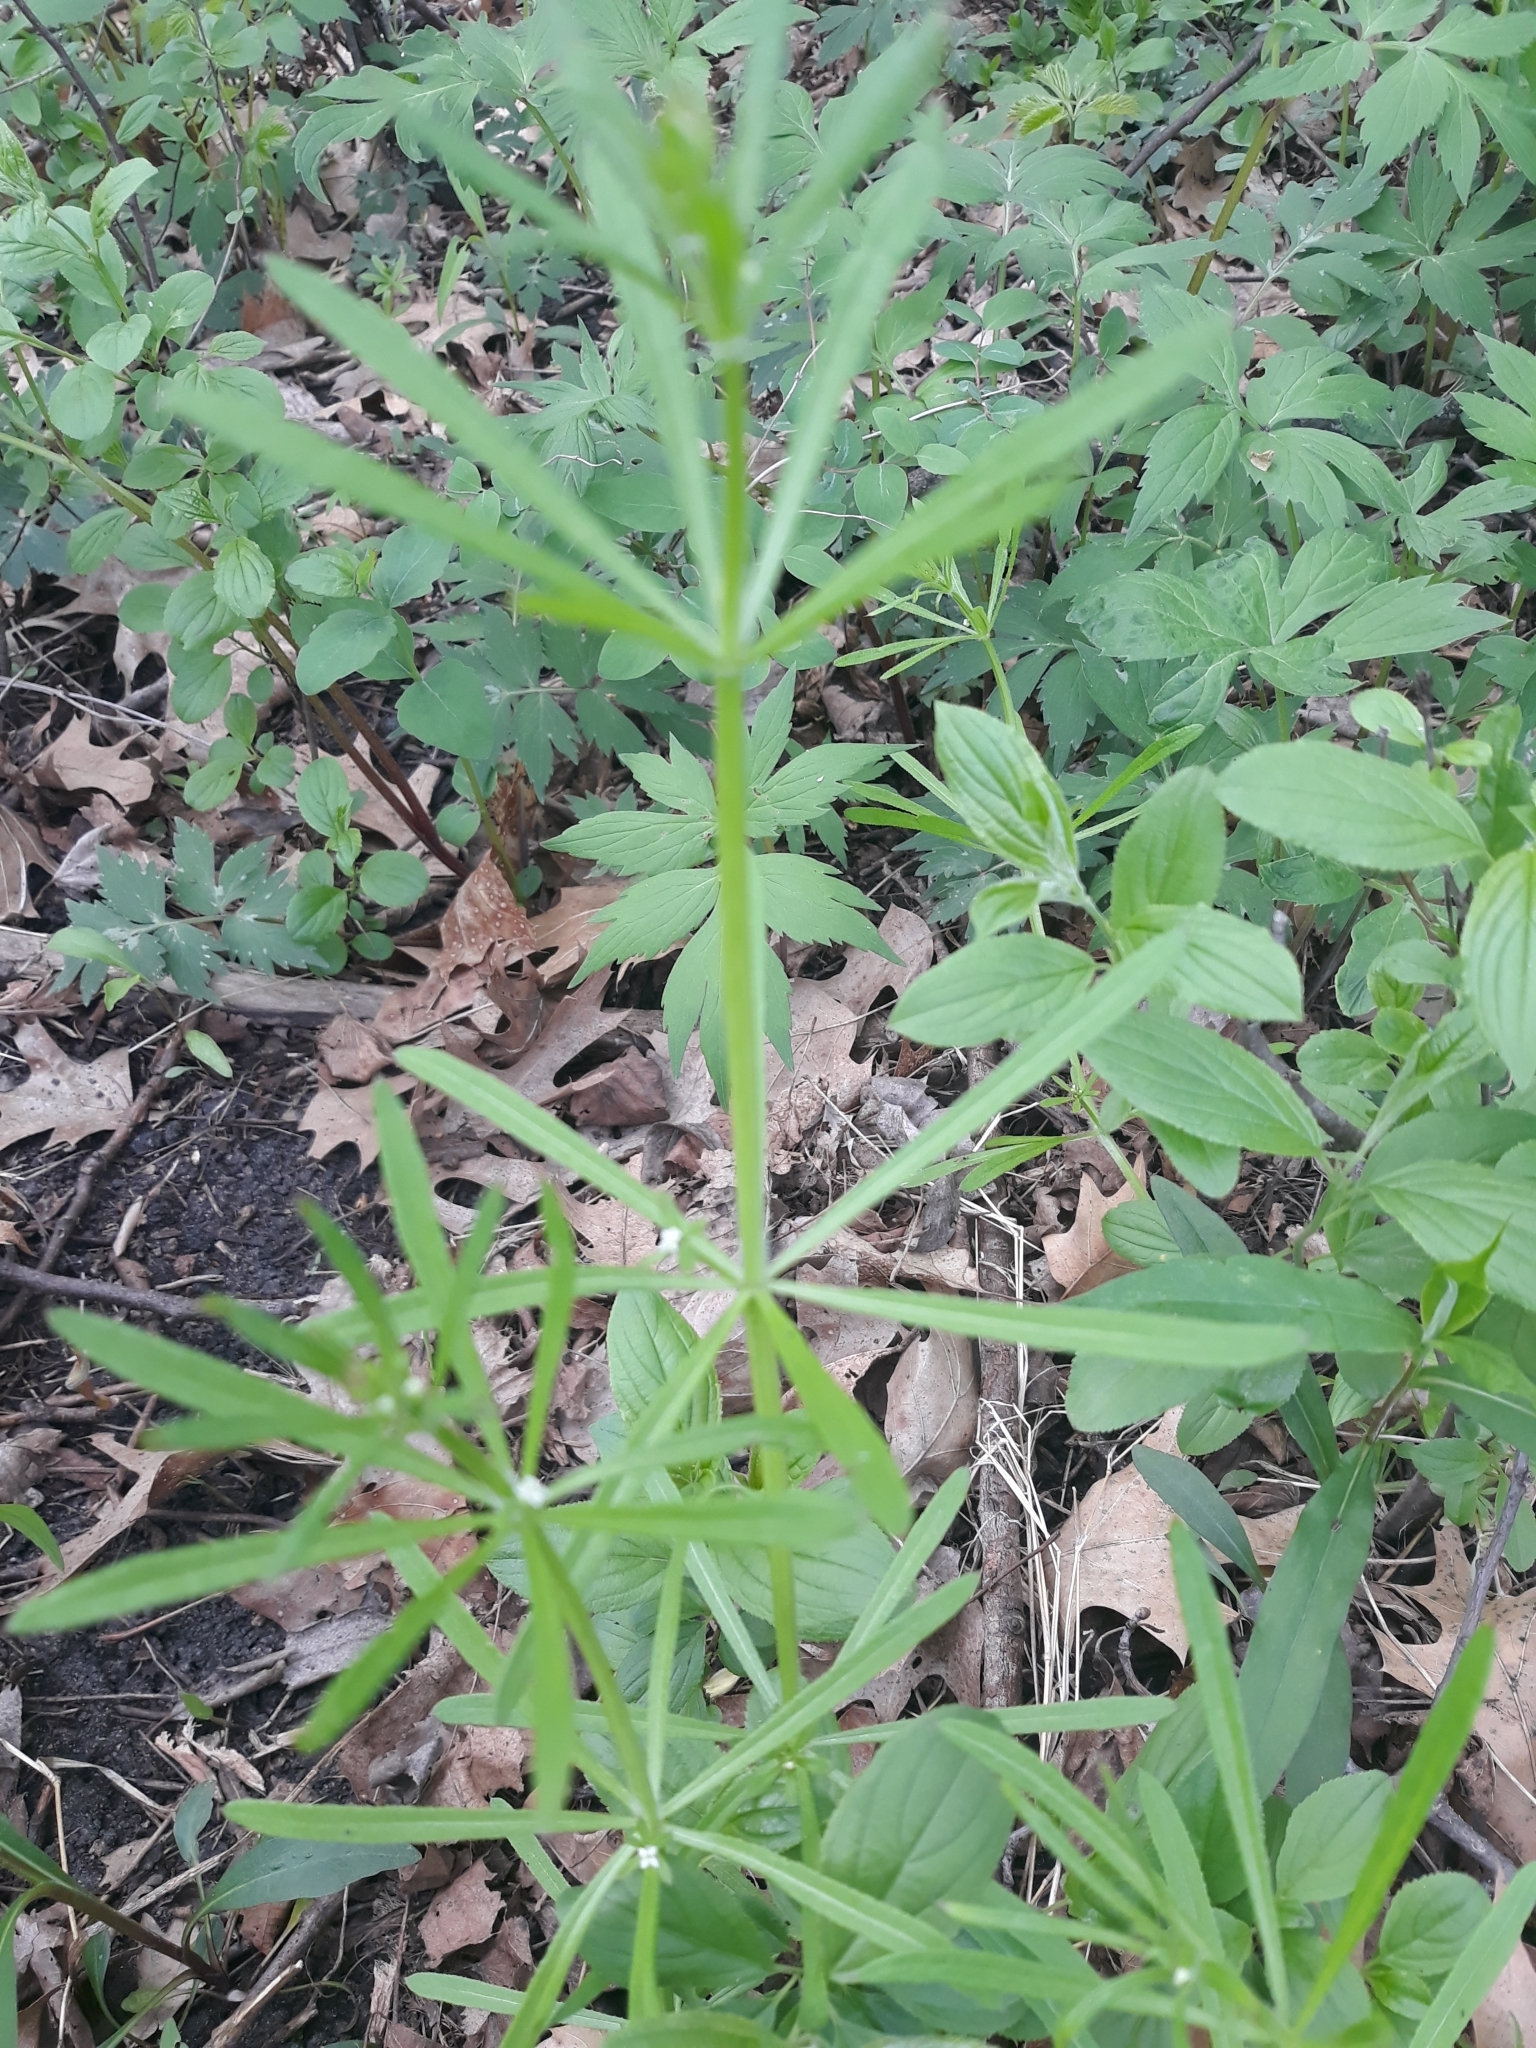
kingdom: Plantae
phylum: Tracheophyta
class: Magnoliopsida
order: Gentianales
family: Rubiaceae
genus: Galium
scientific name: Galium aparine
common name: Cleavers
